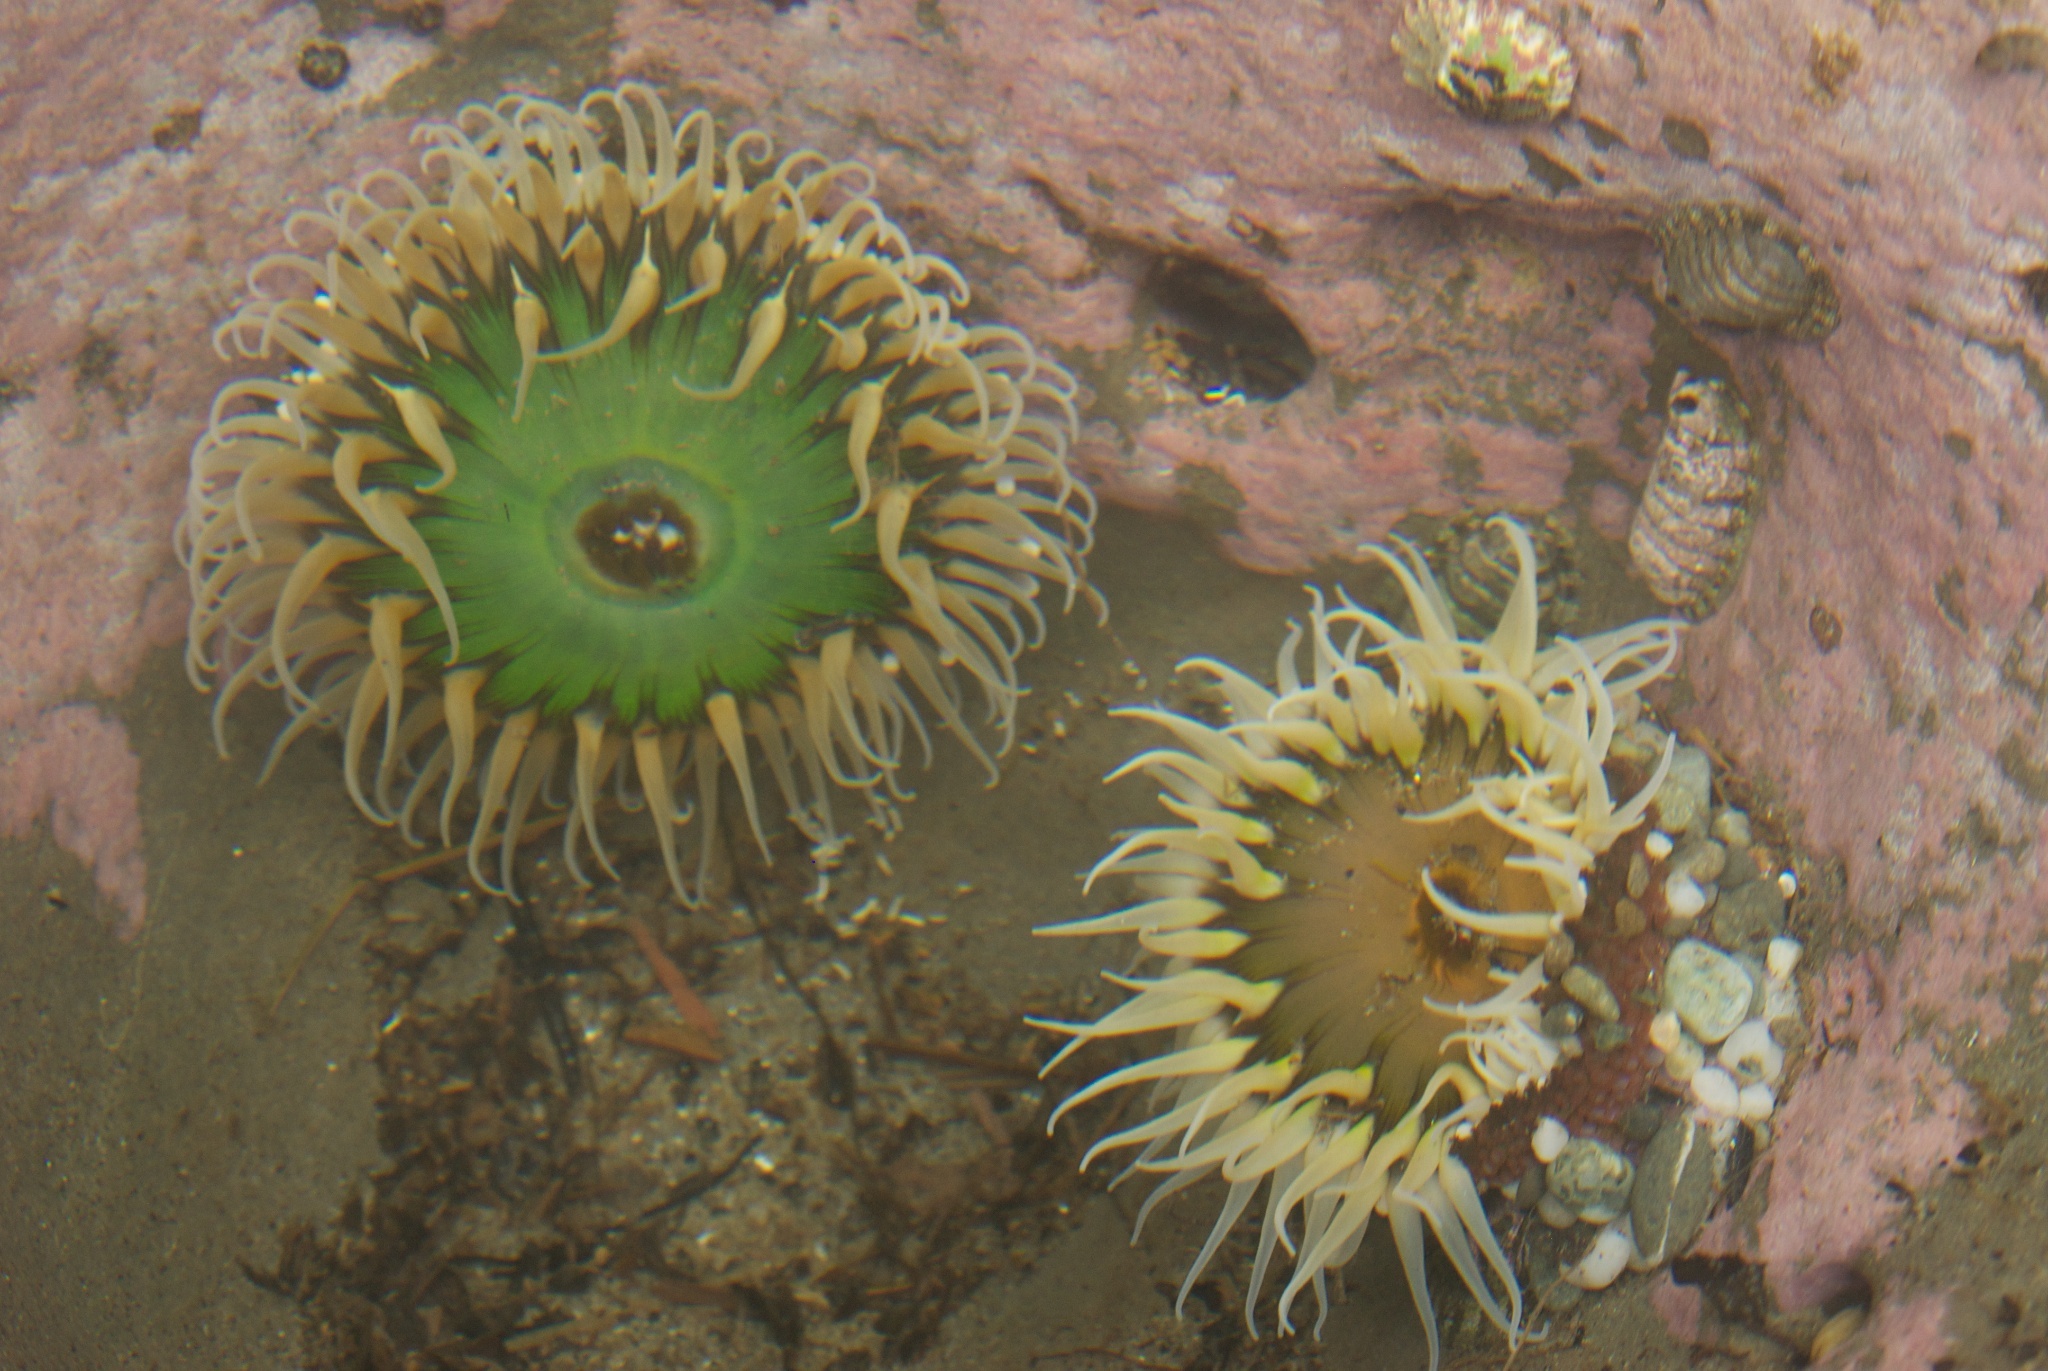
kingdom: Animalia
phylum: Cnidaria
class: Anthozoa
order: Actiniaria
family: Actiniidae
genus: Oulactis
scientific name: Oulactis magna
